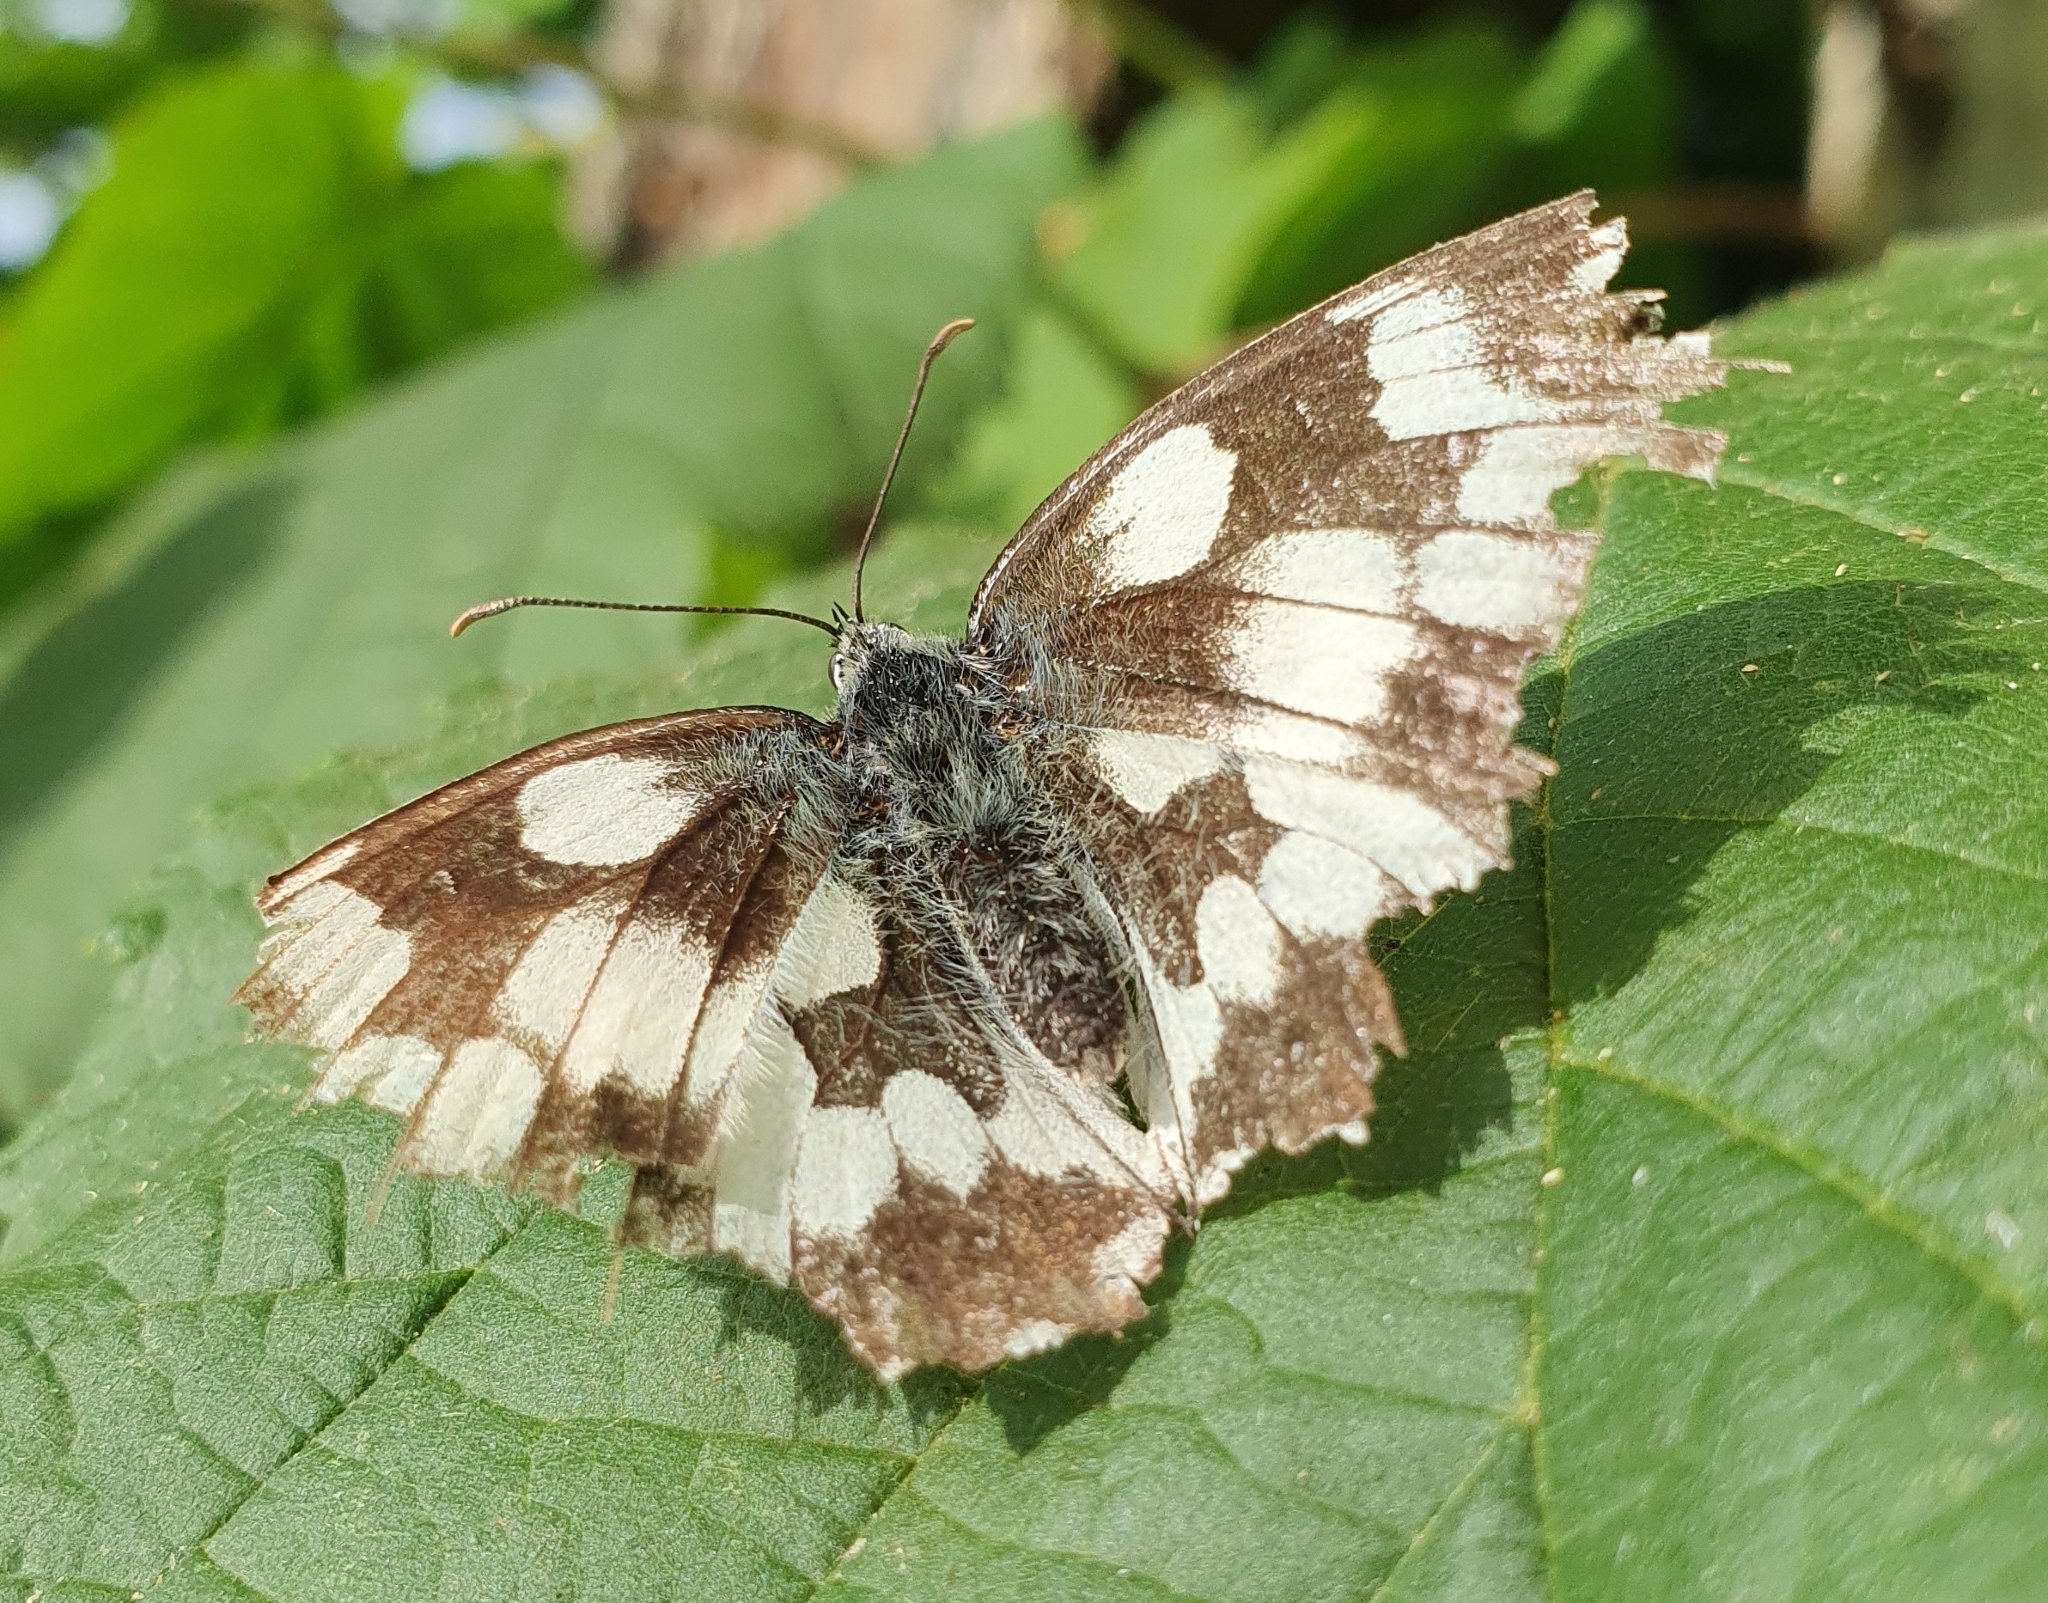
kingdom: Animalia
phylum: Arthropoda
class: Insecta
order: Lepidoptera
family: Nymphalidae
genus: Melanargia
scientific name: Melanargia galathea
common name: Marbled white
